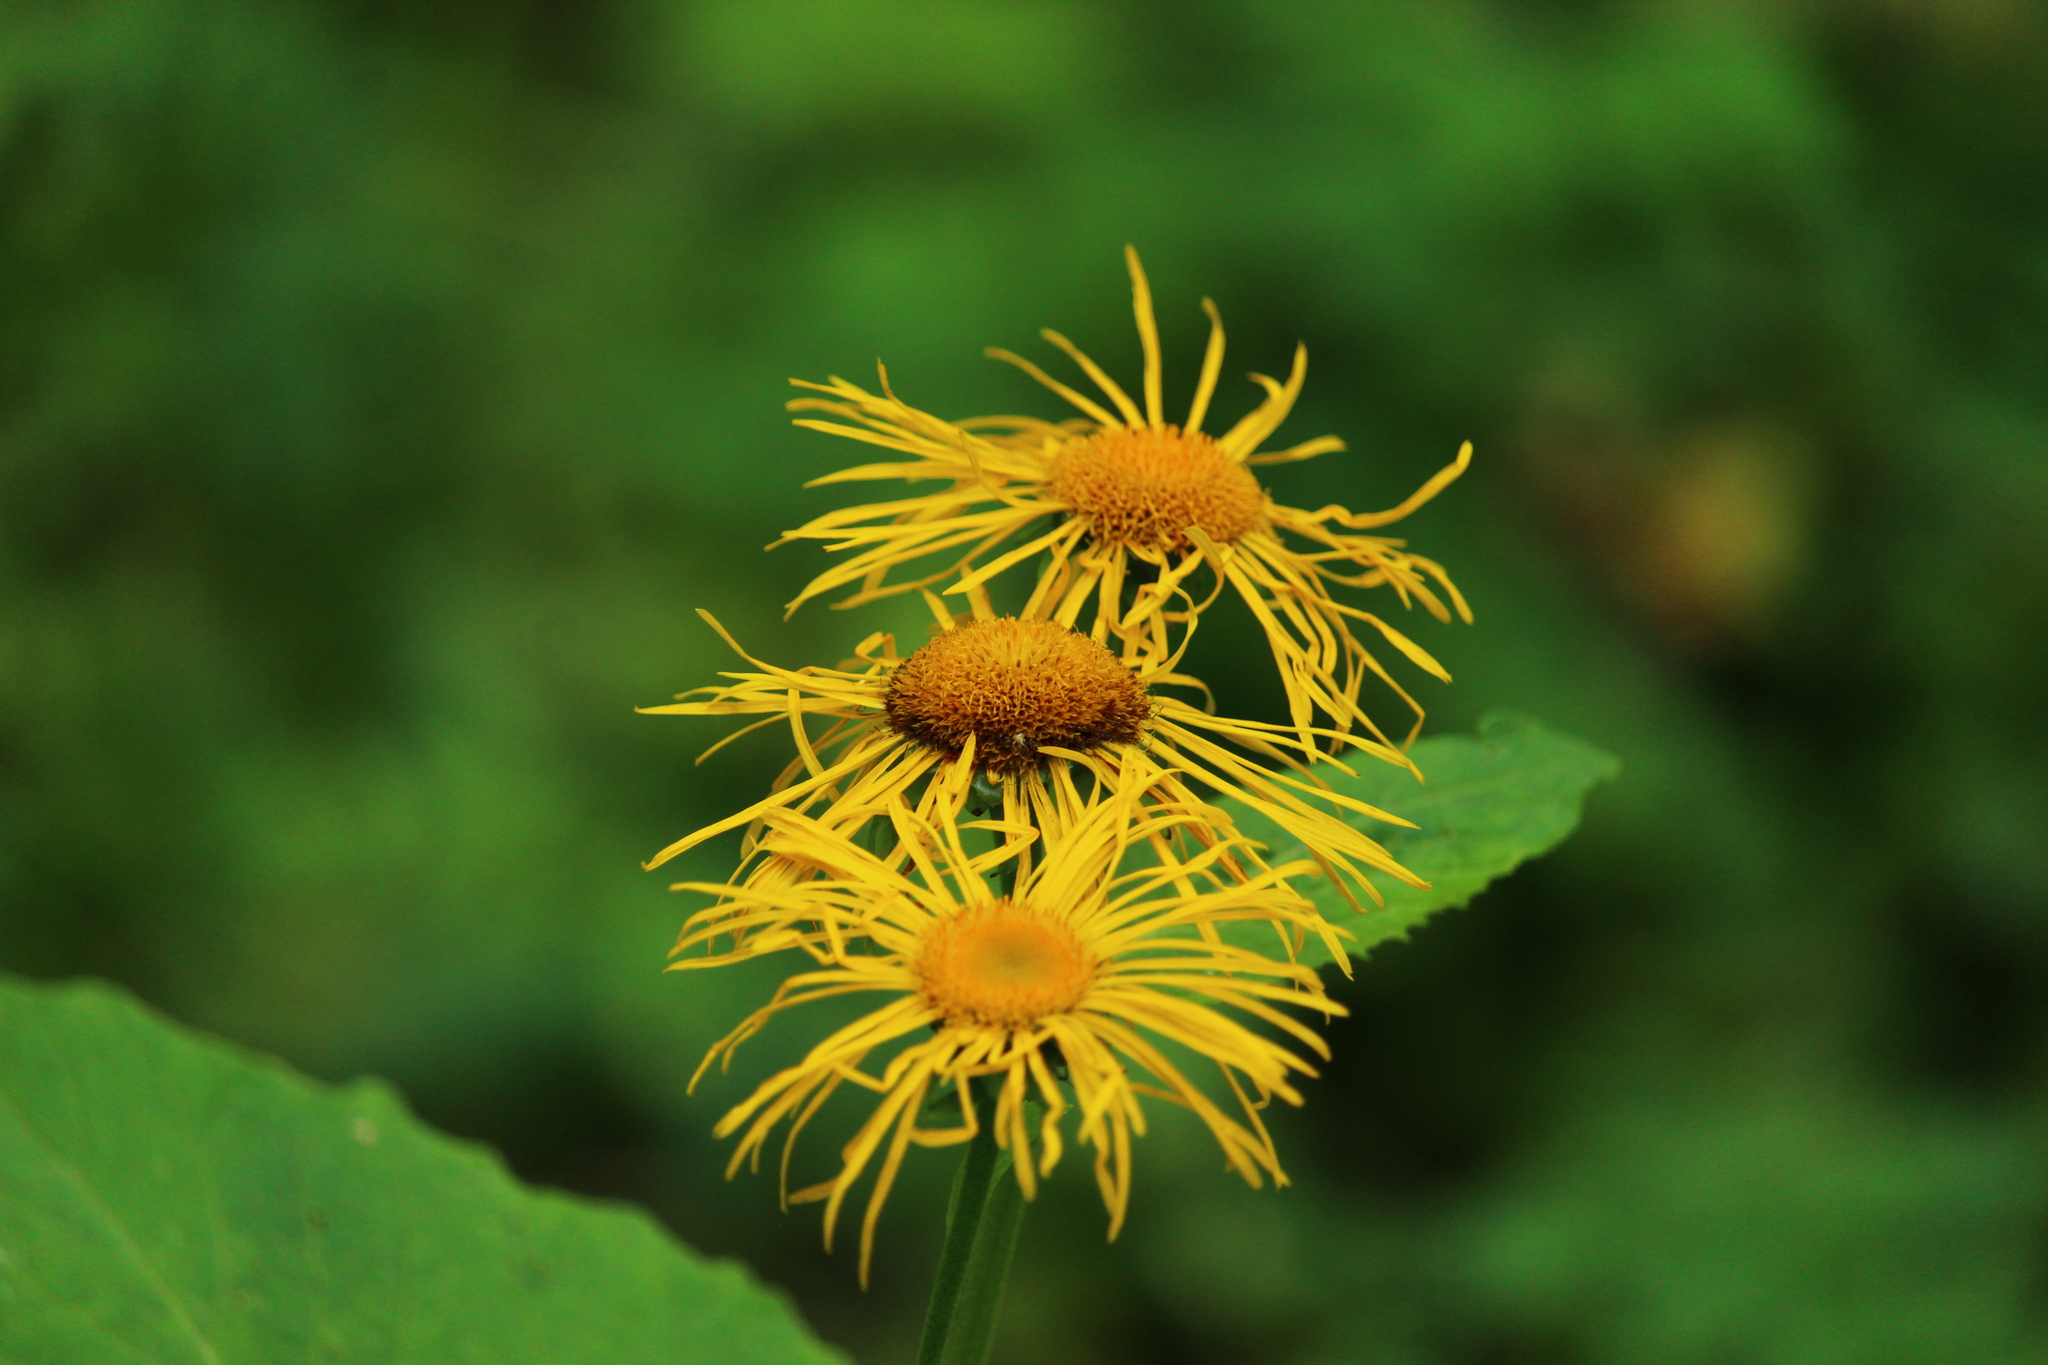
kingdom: Plantae
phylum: Tracheophyta
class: Magnoliopsida
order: Asterales
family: Asteraceae
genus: Telekia
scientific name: Telekia speciosa
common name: Yellow oxeye
